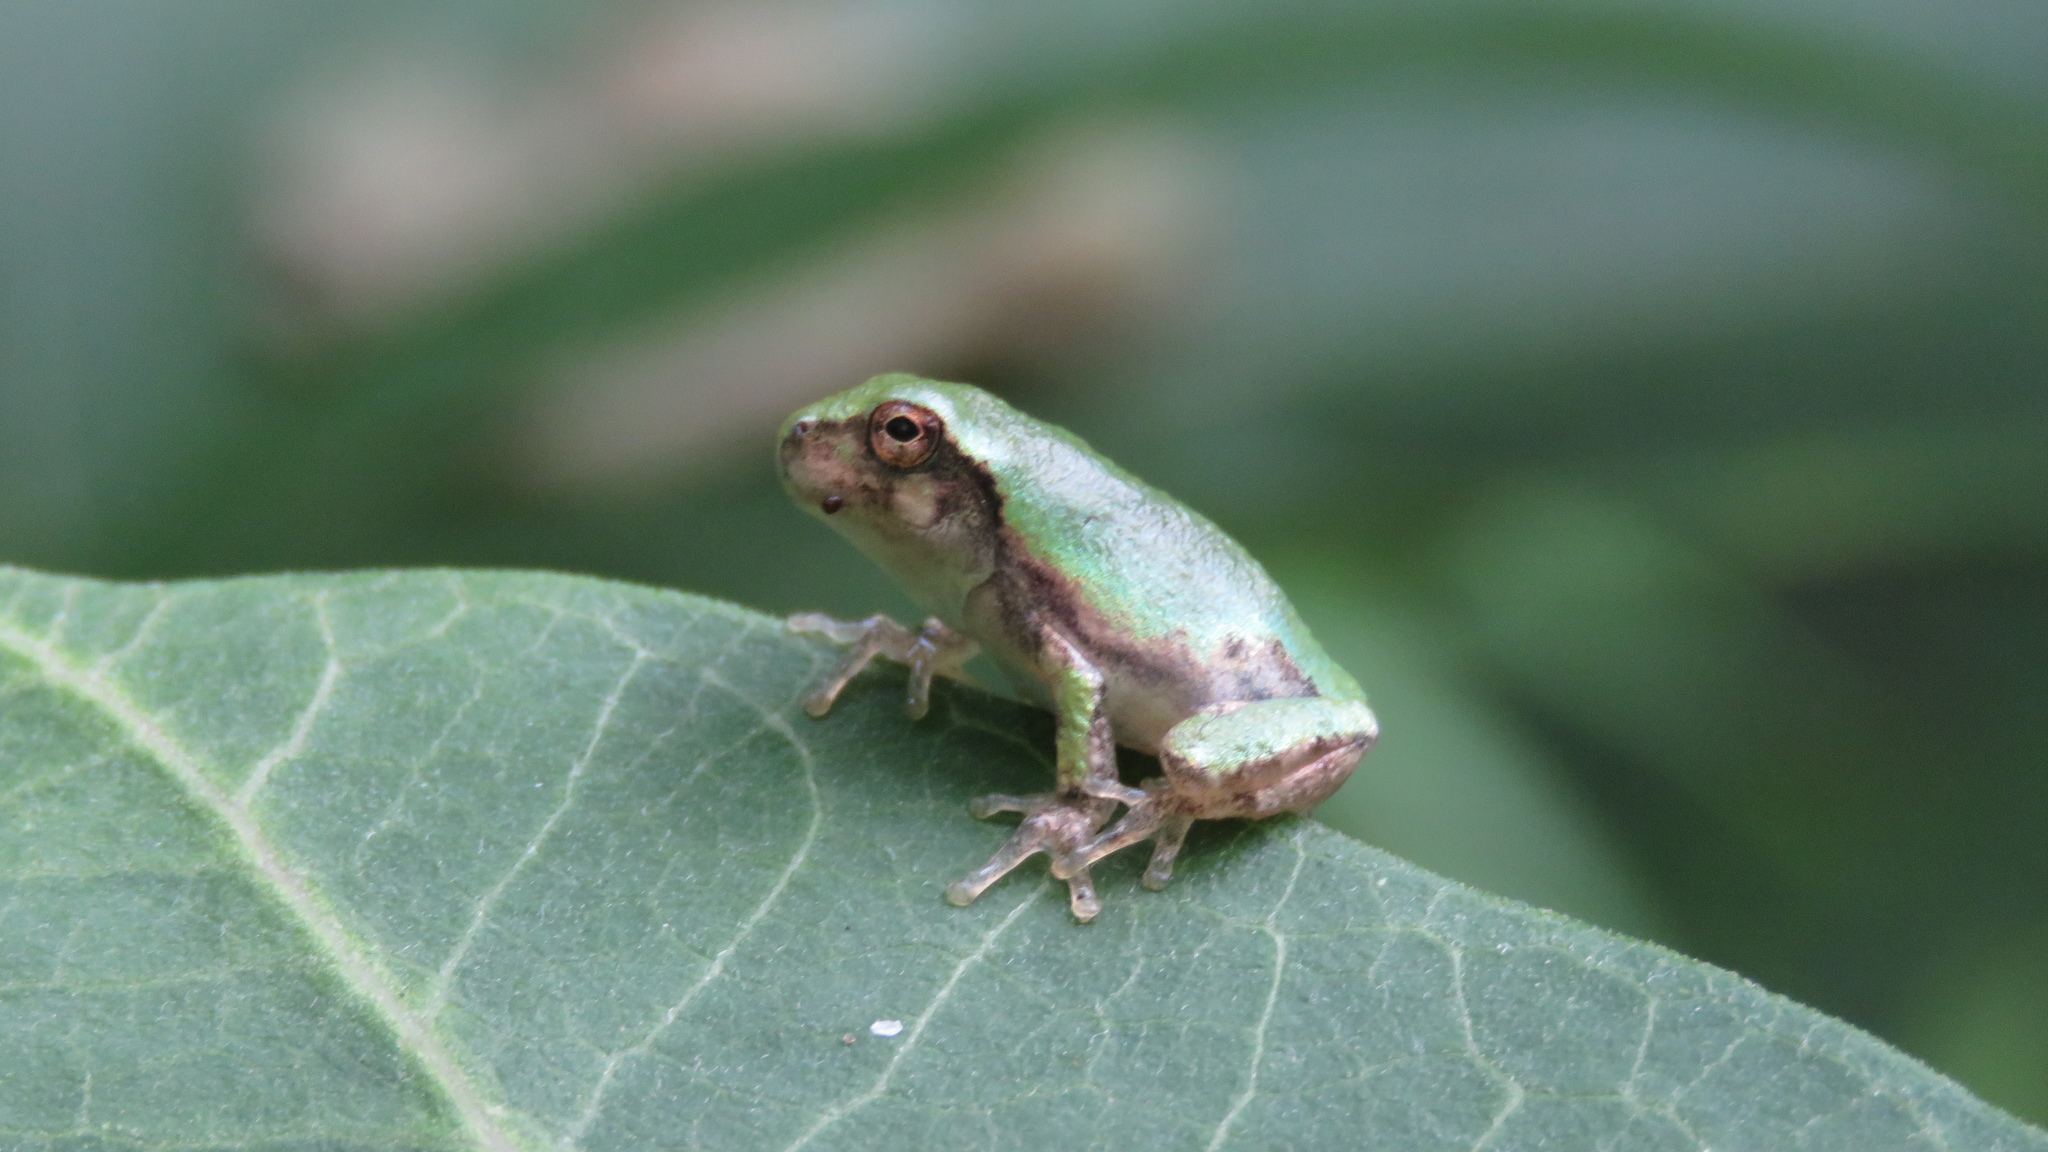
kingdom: Animalia
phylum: Chordata
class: Amphibia
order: Anura
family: Hylidae
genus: Dryophytes
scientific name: Dryophytes versicolor
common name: Gray treefrog
